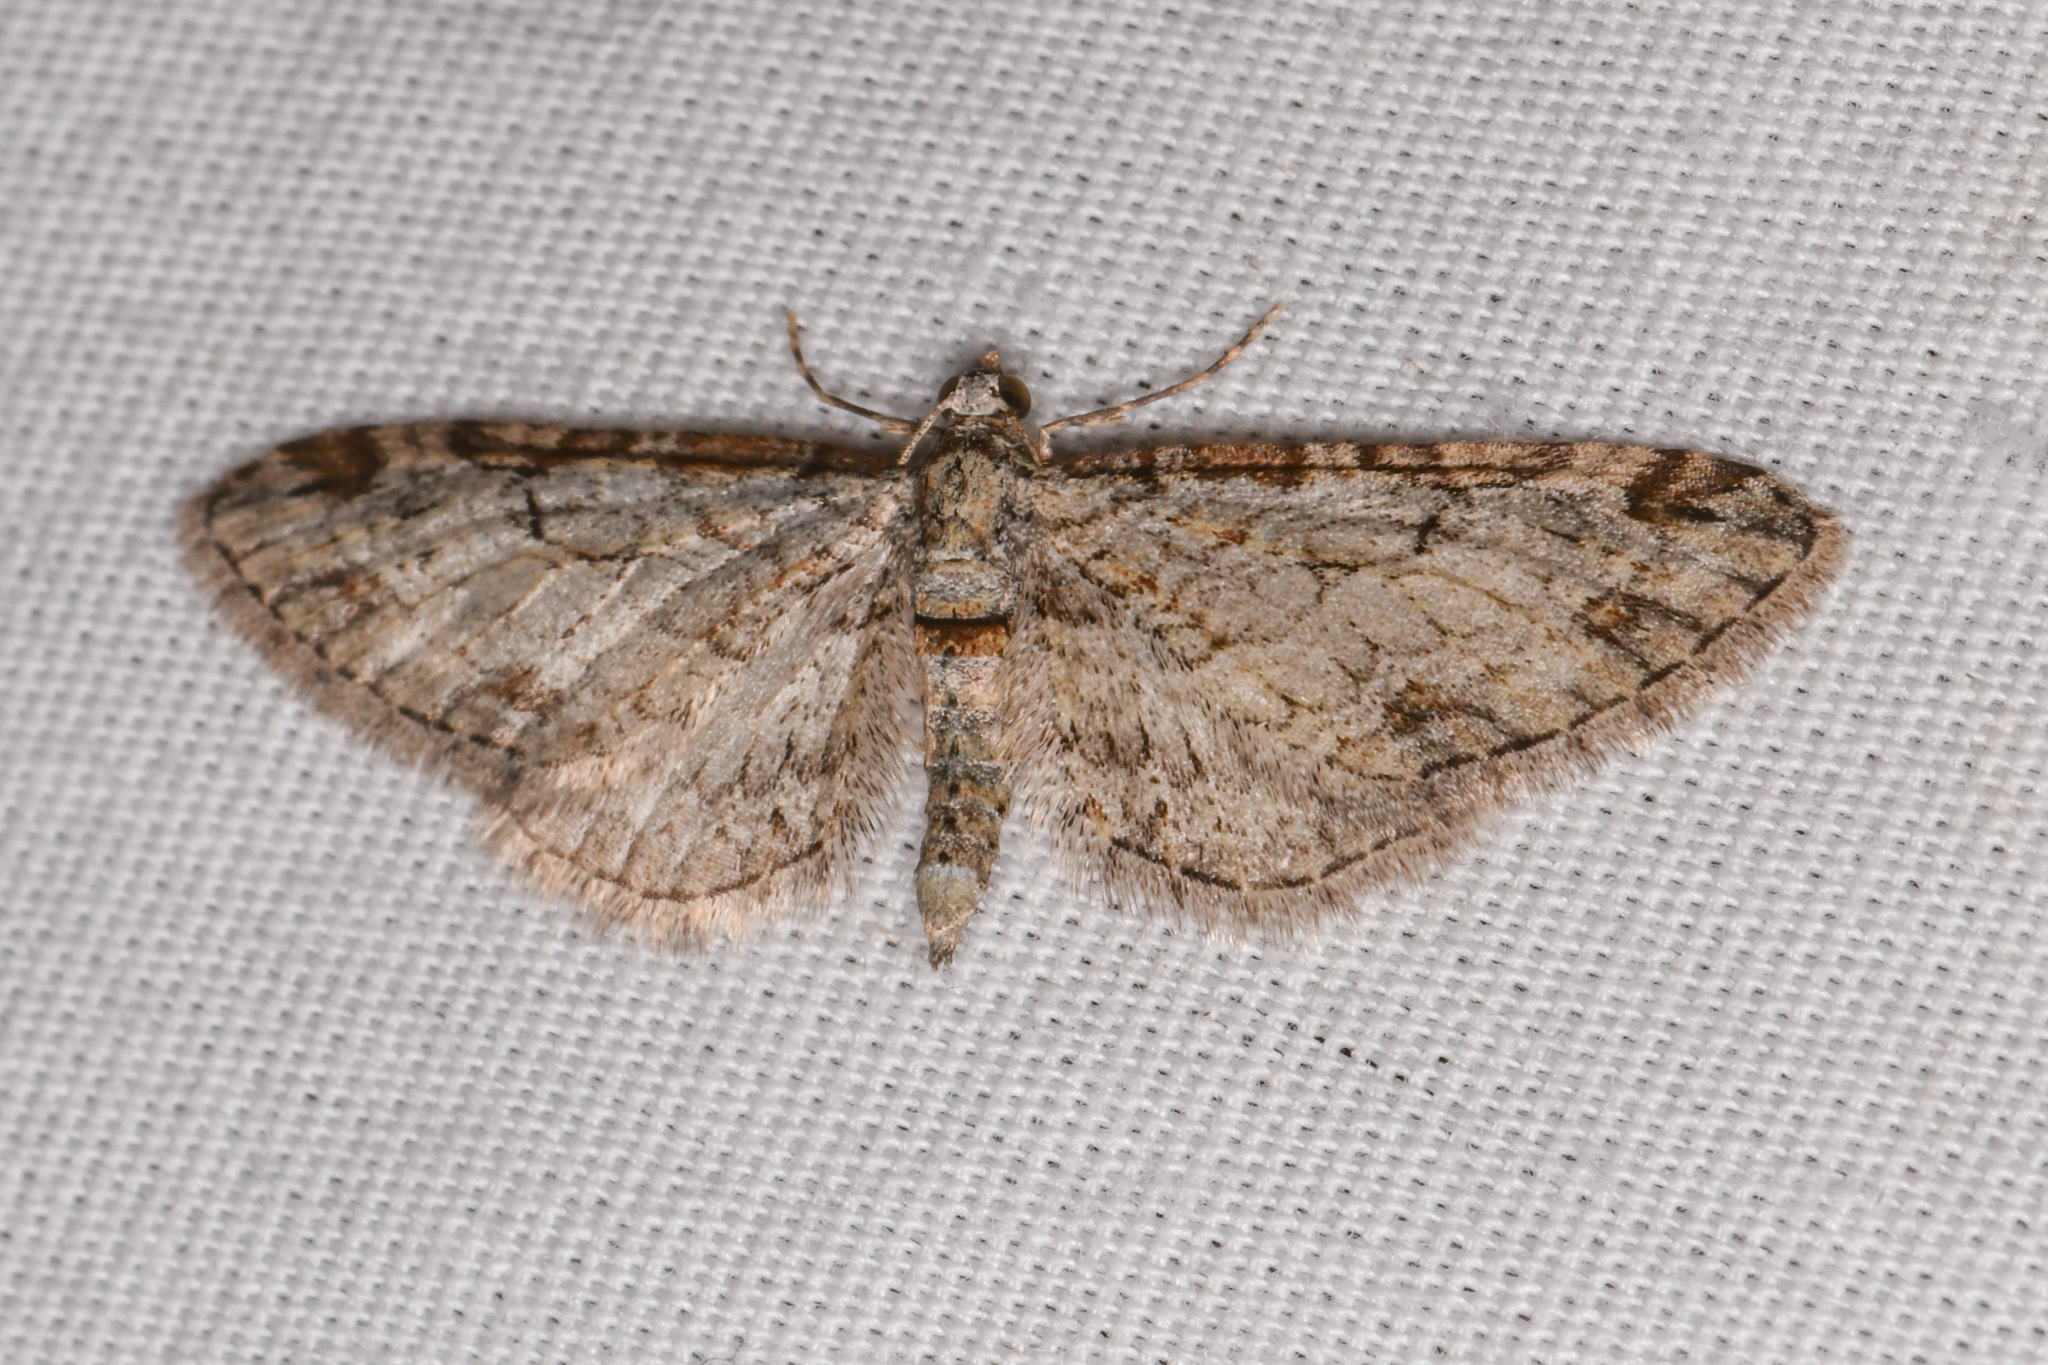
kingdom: Animalia
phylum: Arthropoda
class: Insecta
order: Lepidoptera
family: Geometridae
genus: Eupithecia
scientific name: Eupithecia zelmira
